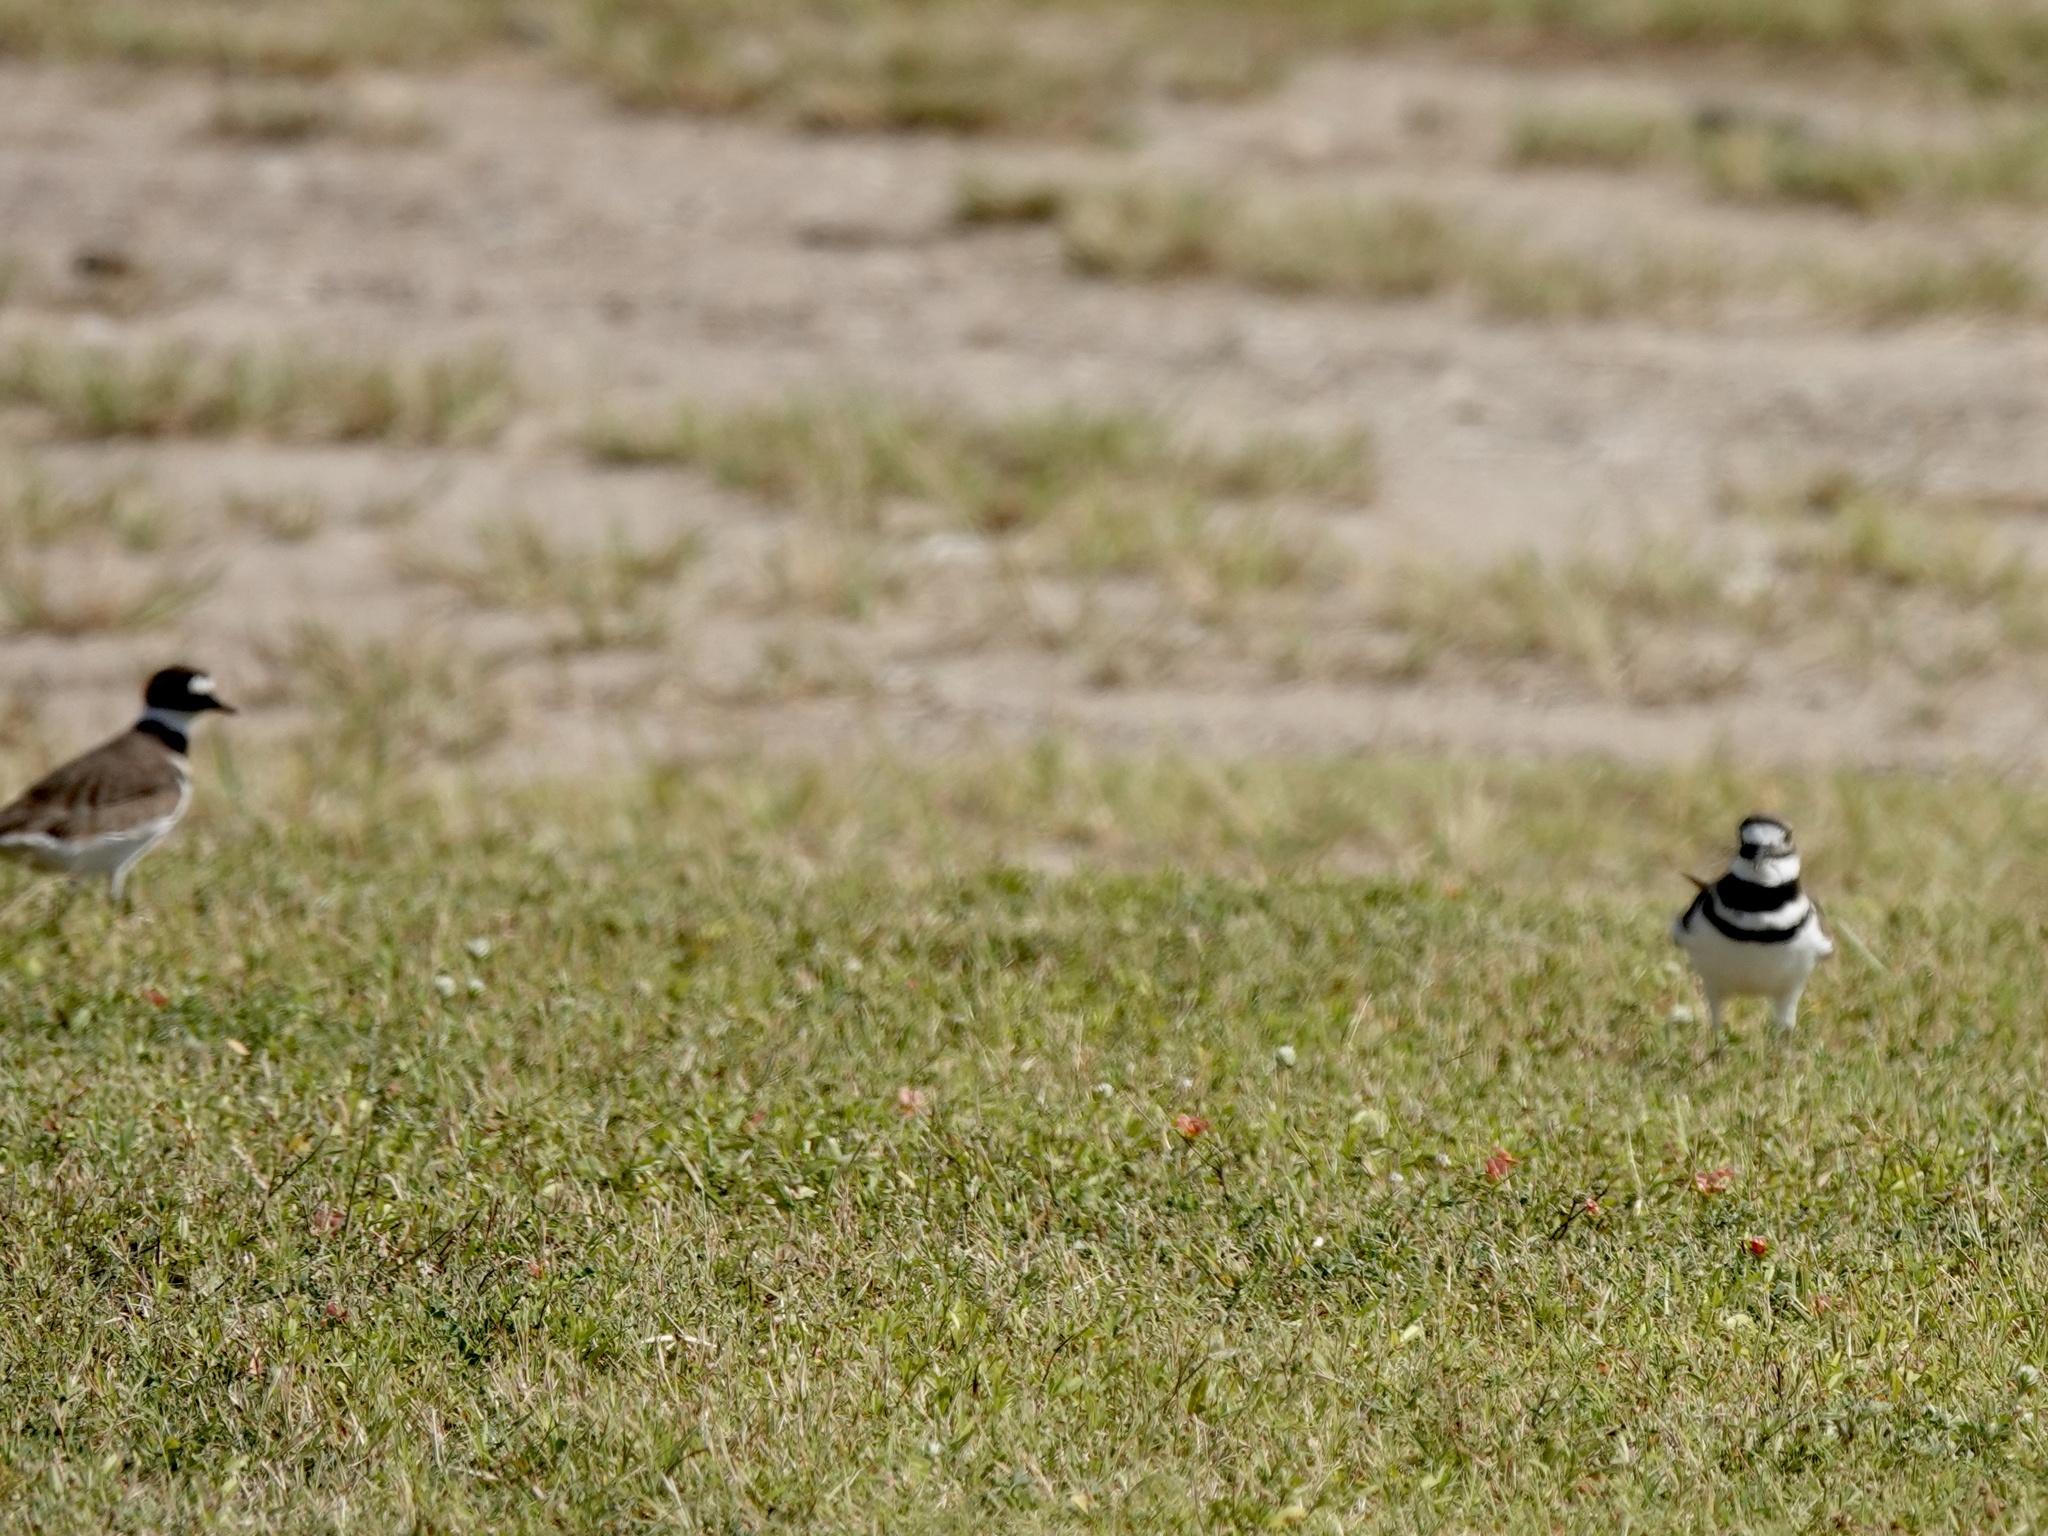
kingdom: Animalia
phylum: Chordata
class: Aves
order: Charadriiformes
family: Charadriidae
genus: Charadrius
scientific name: Charadrius vociferus
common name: Killdeer
